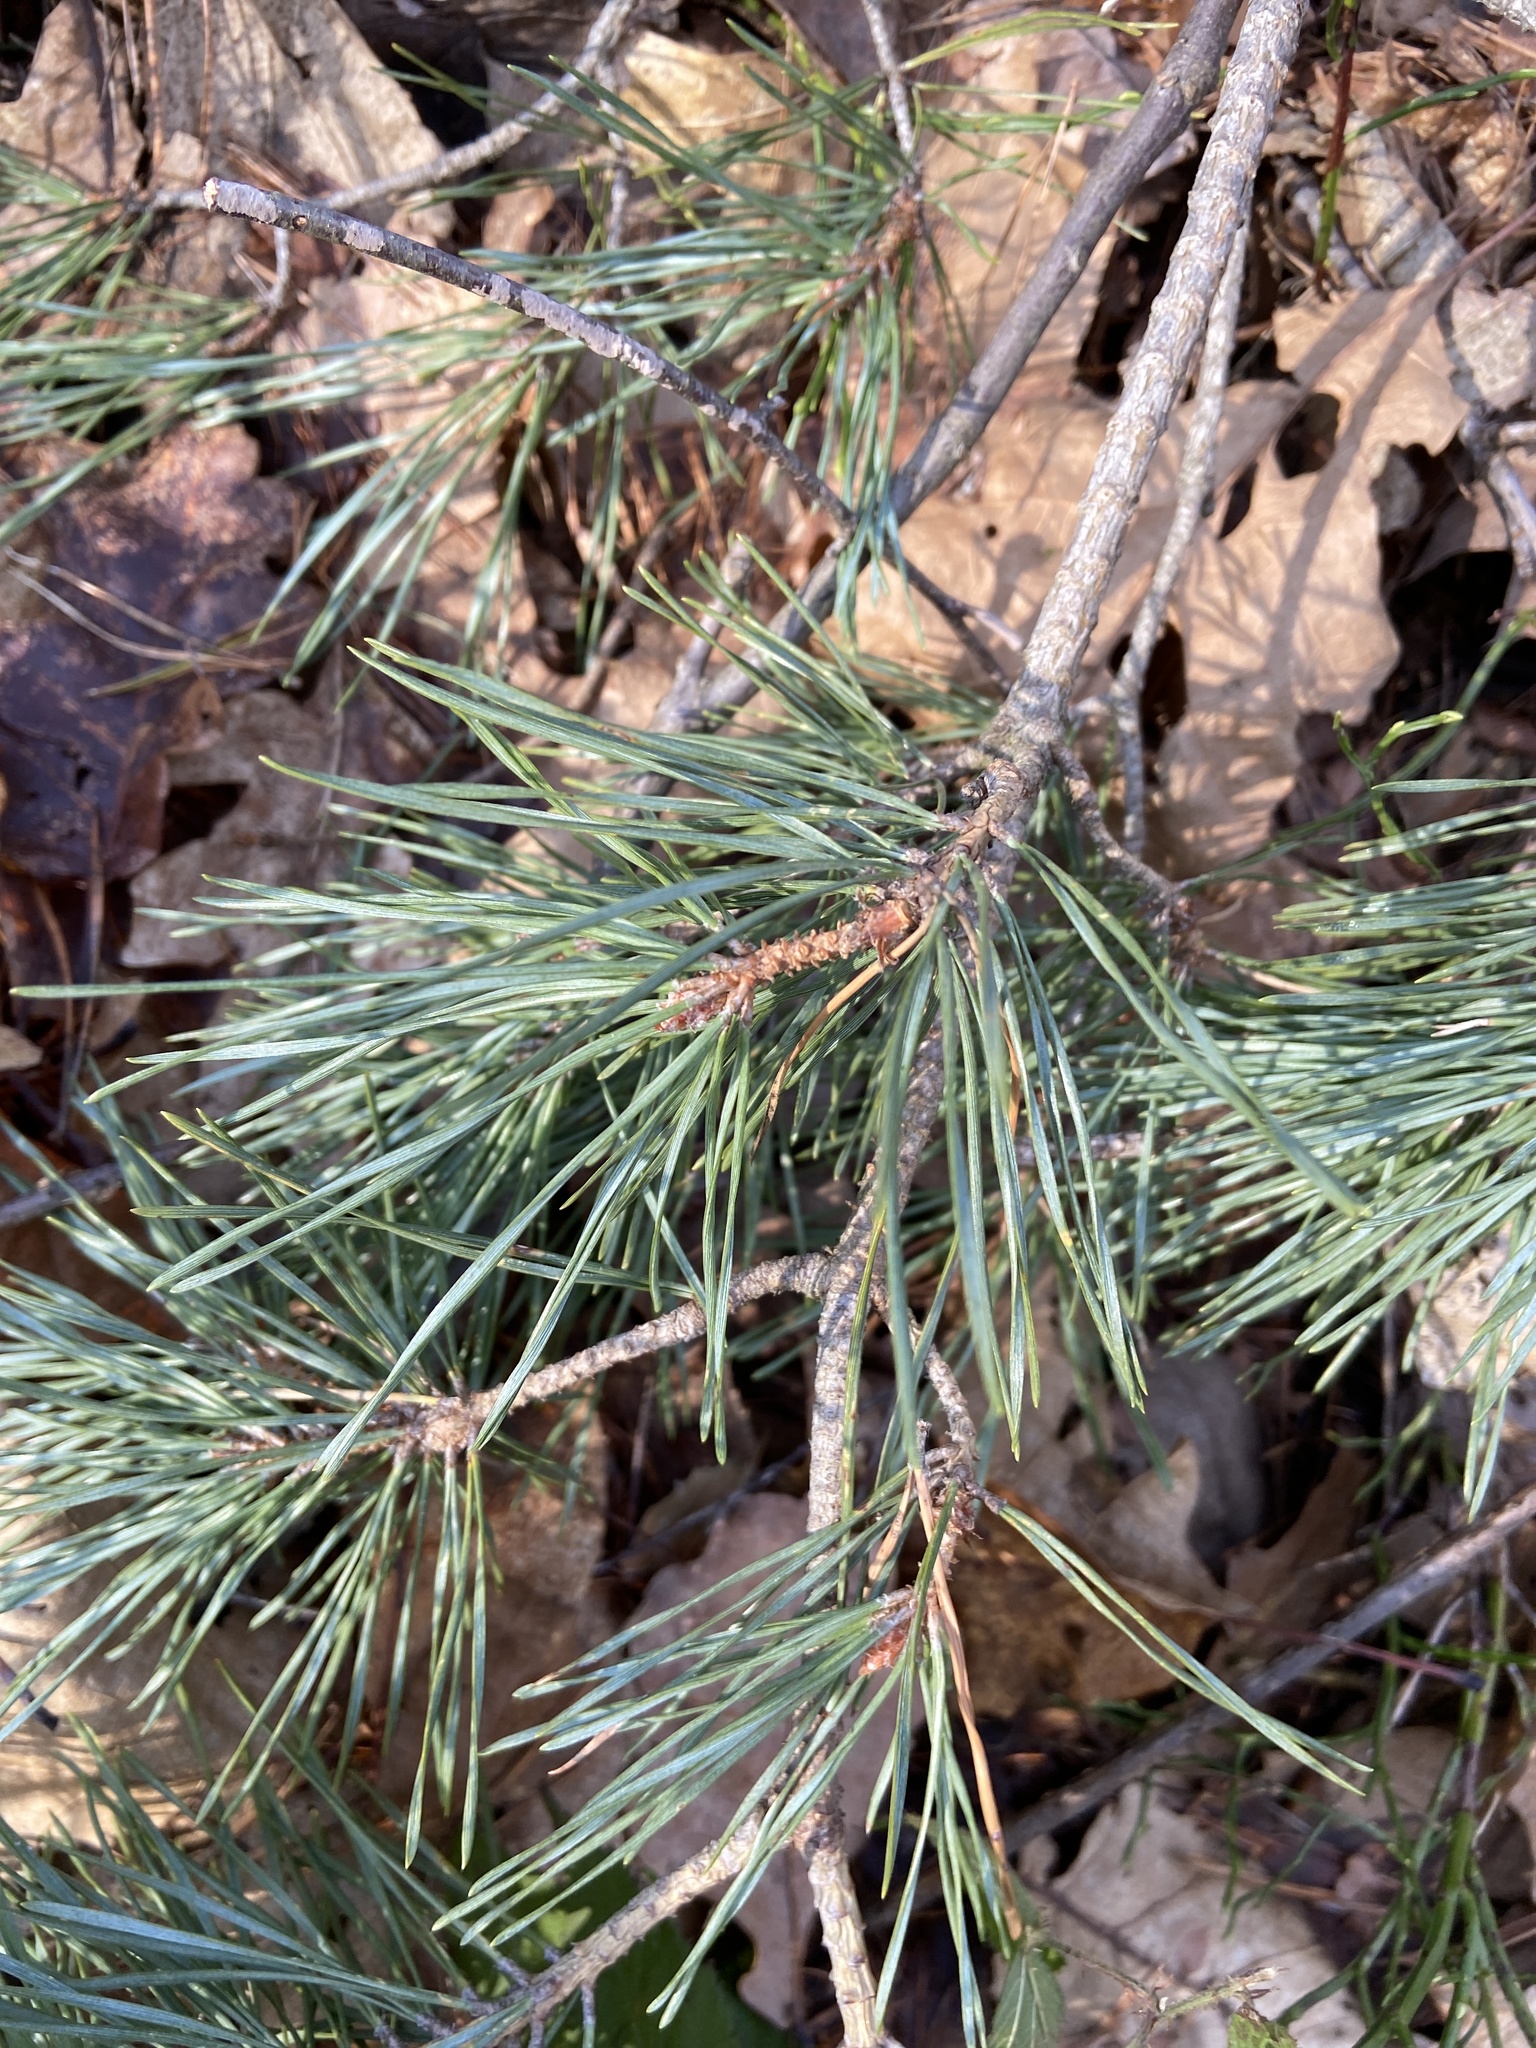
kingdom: Plantae
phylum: Tracheophyta
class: Pinopsida
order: Pinales
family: Pinaceae
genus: Pinus
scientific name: Pinus sylvestris
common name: Scots pine
